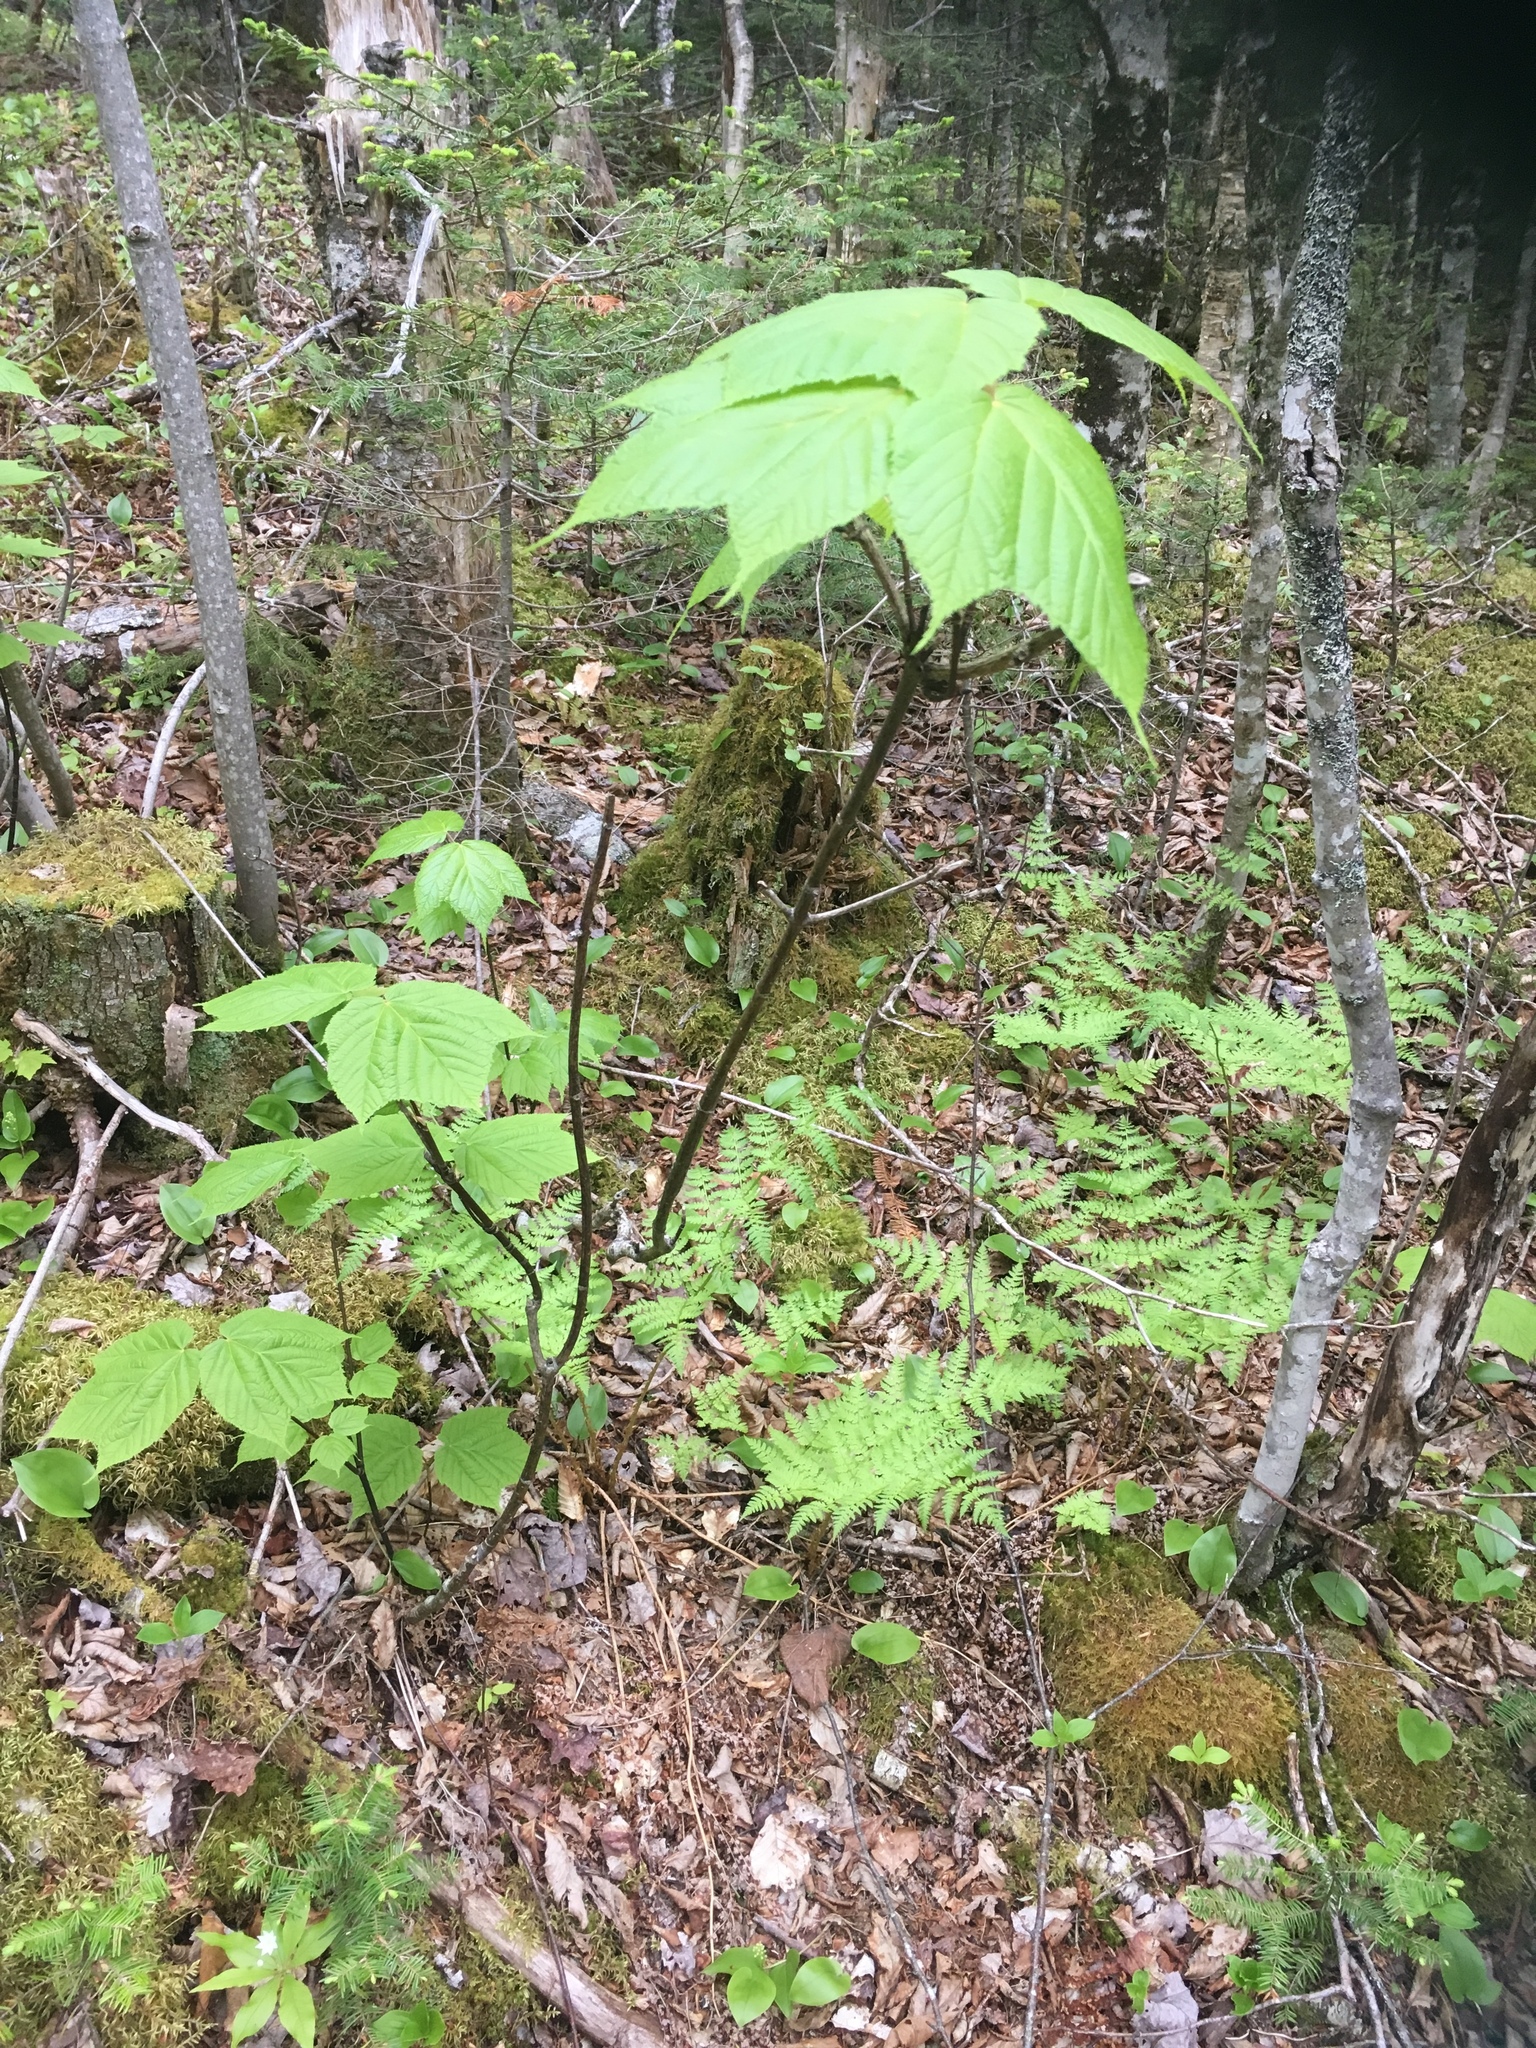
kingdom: Plantae
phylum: Tracheophyta
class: Magnoliopsida
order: Sapindales
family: Sapindaceae
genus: Acer
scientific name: Acer pensylvanicum
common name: Moosewood
